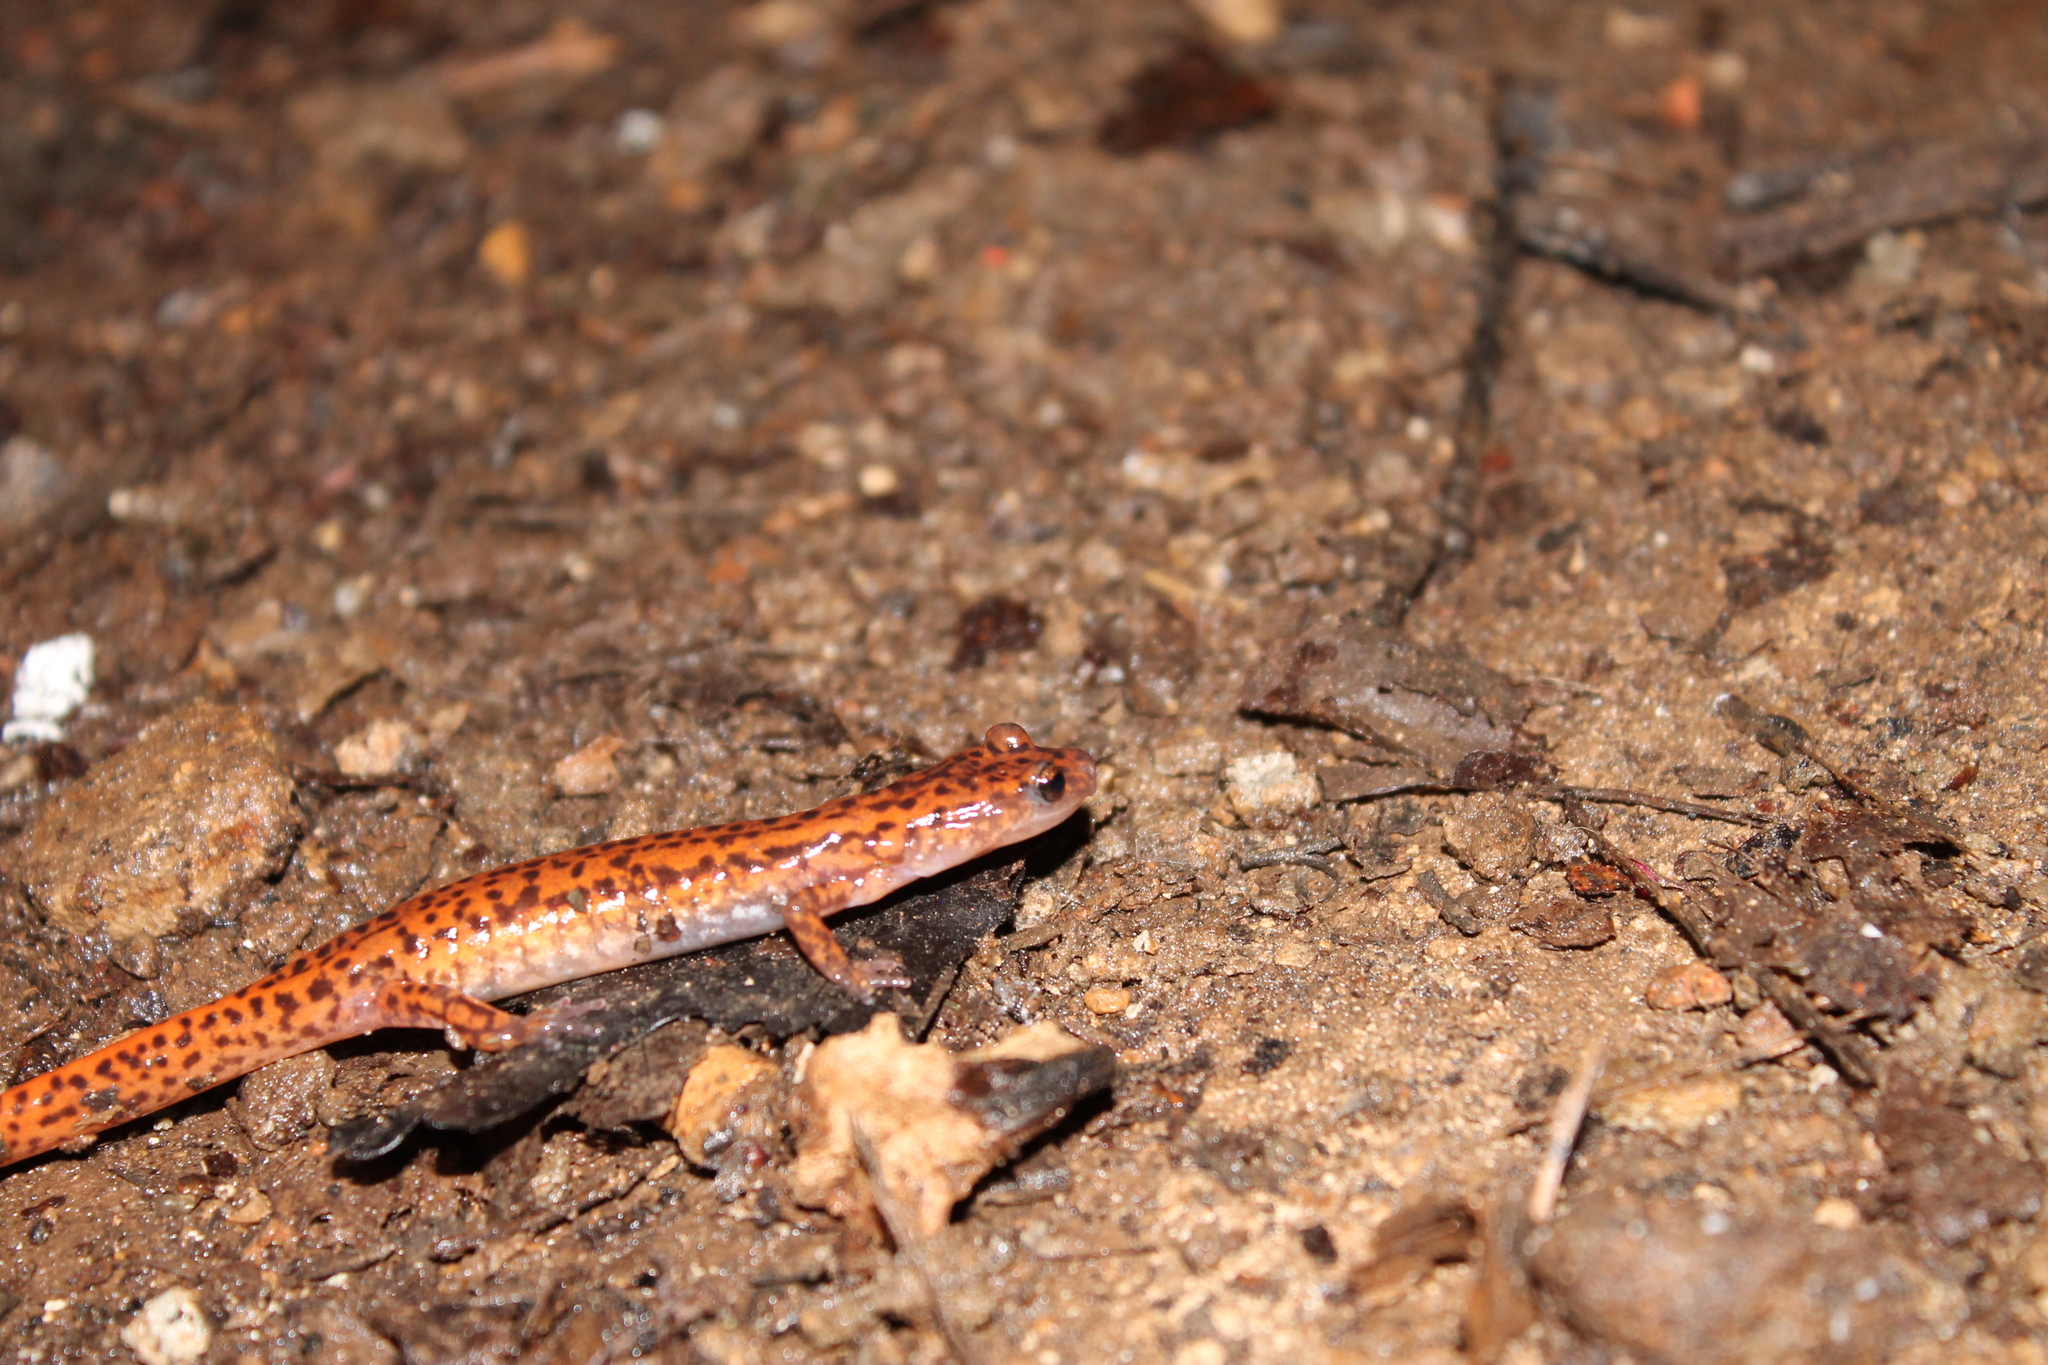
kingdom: Animalia
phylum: Chordata
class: Amphibia
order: Caudata
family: Plethodontidae
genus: Eurycea
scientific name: Eurycea lucifuga
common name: Cave salamander
